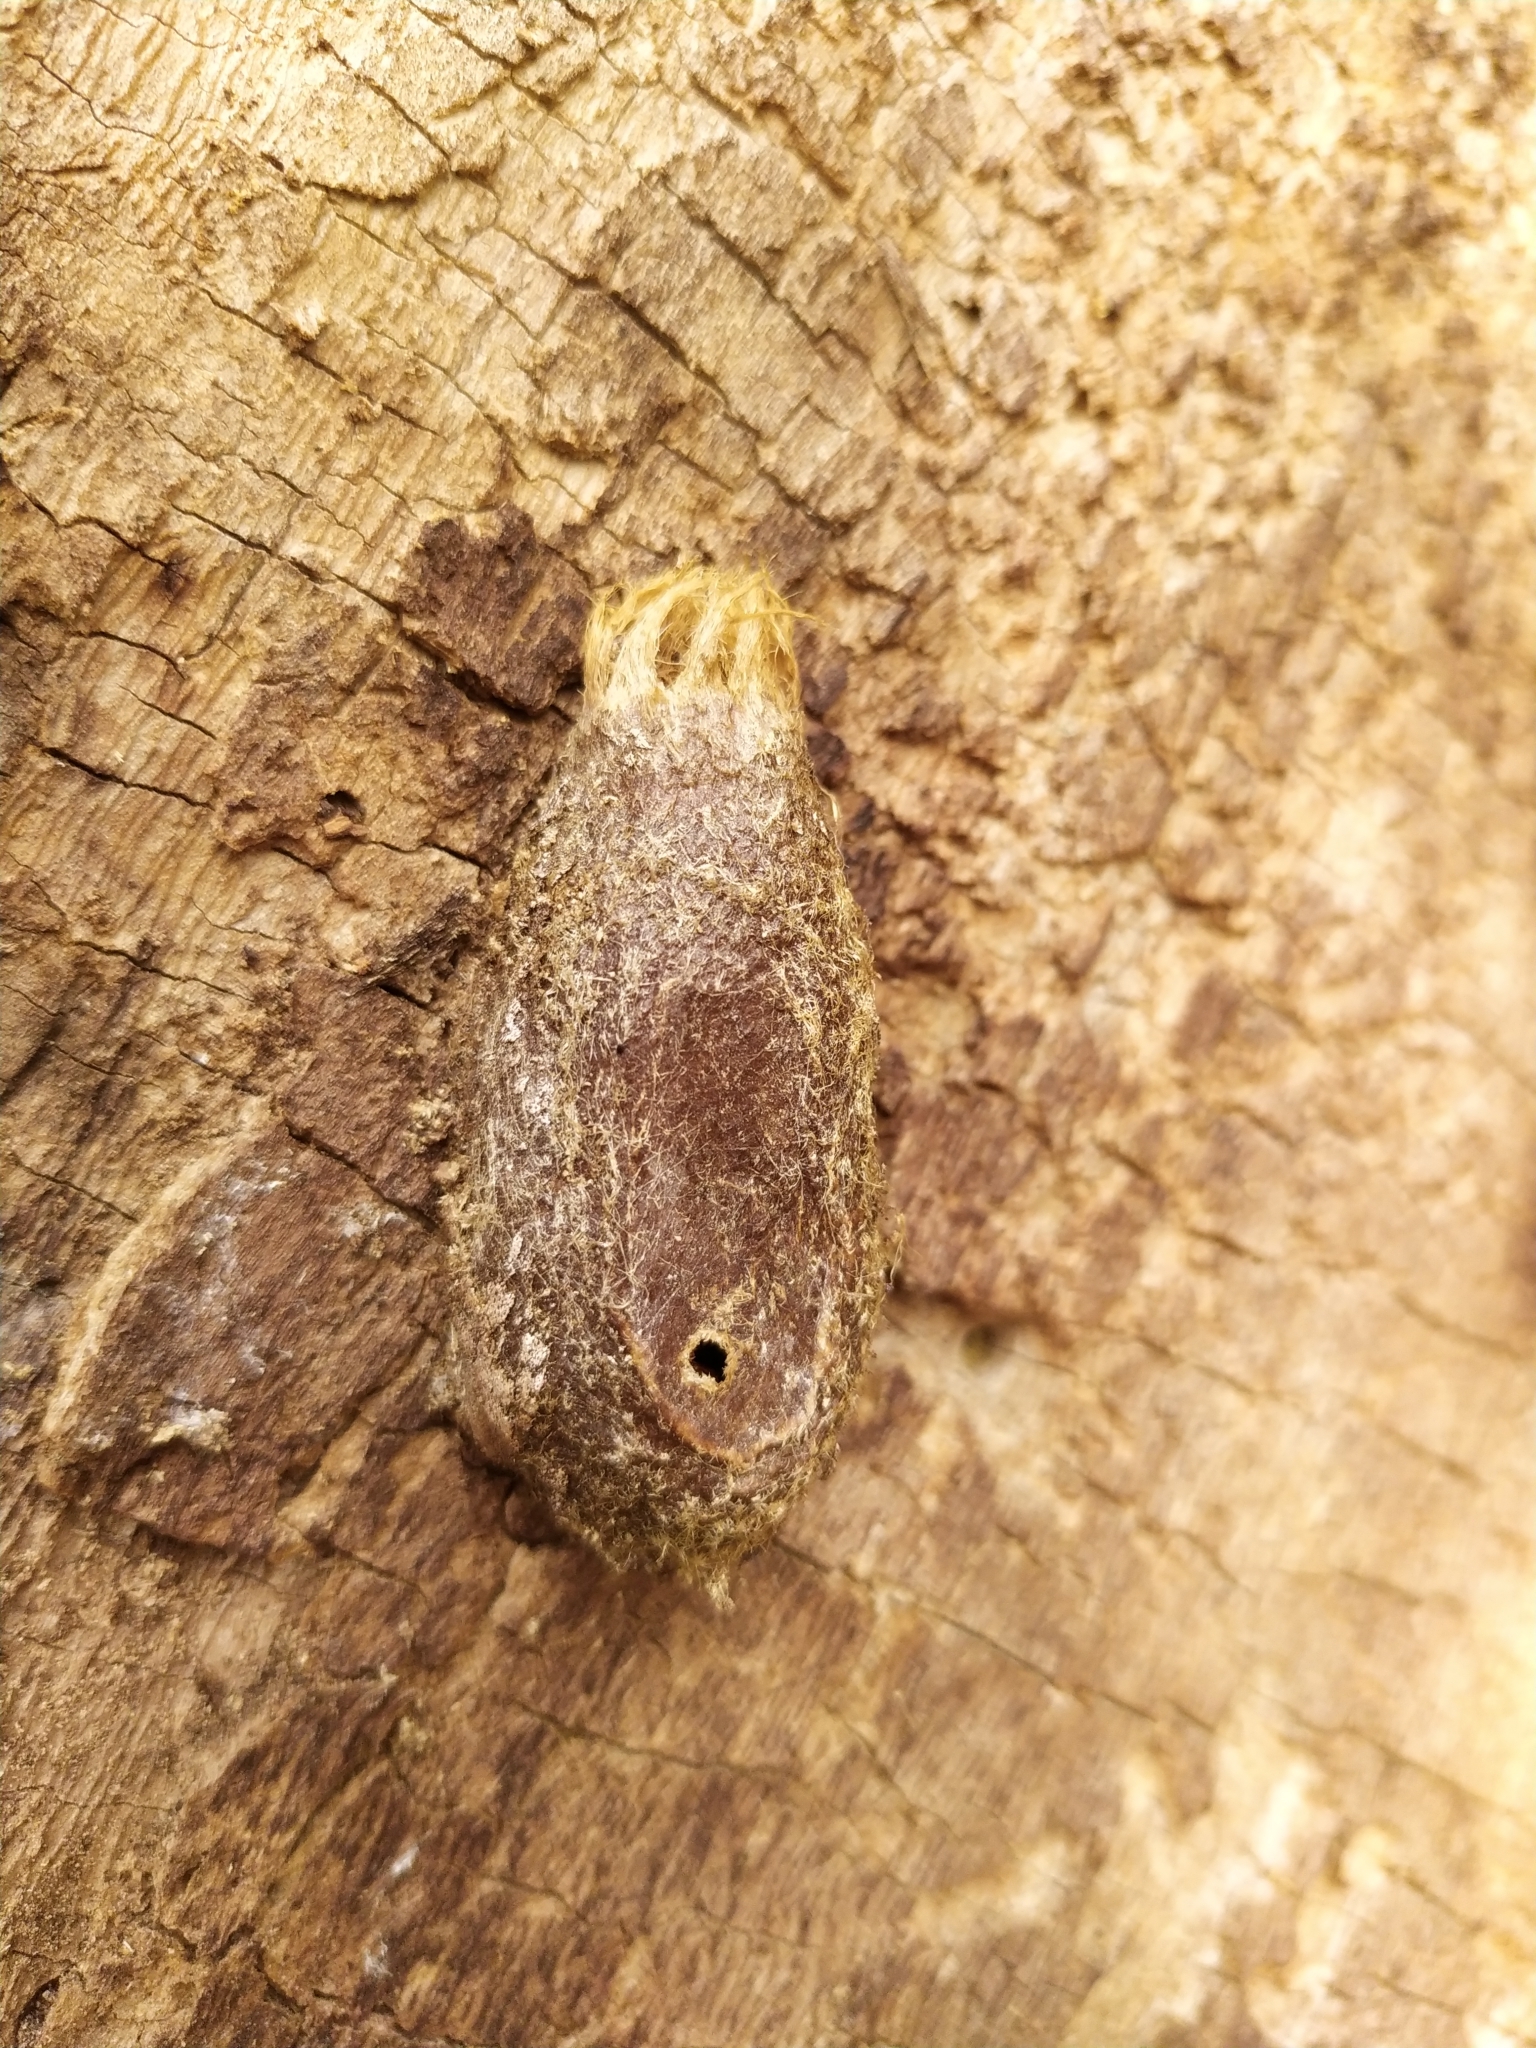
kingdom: Animalia
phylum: Arthropoda
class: Insecta
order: Lepidoptera
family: Saturniidae
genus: Saturnia
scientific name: Saturnia pyri
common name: Great peacock moth
